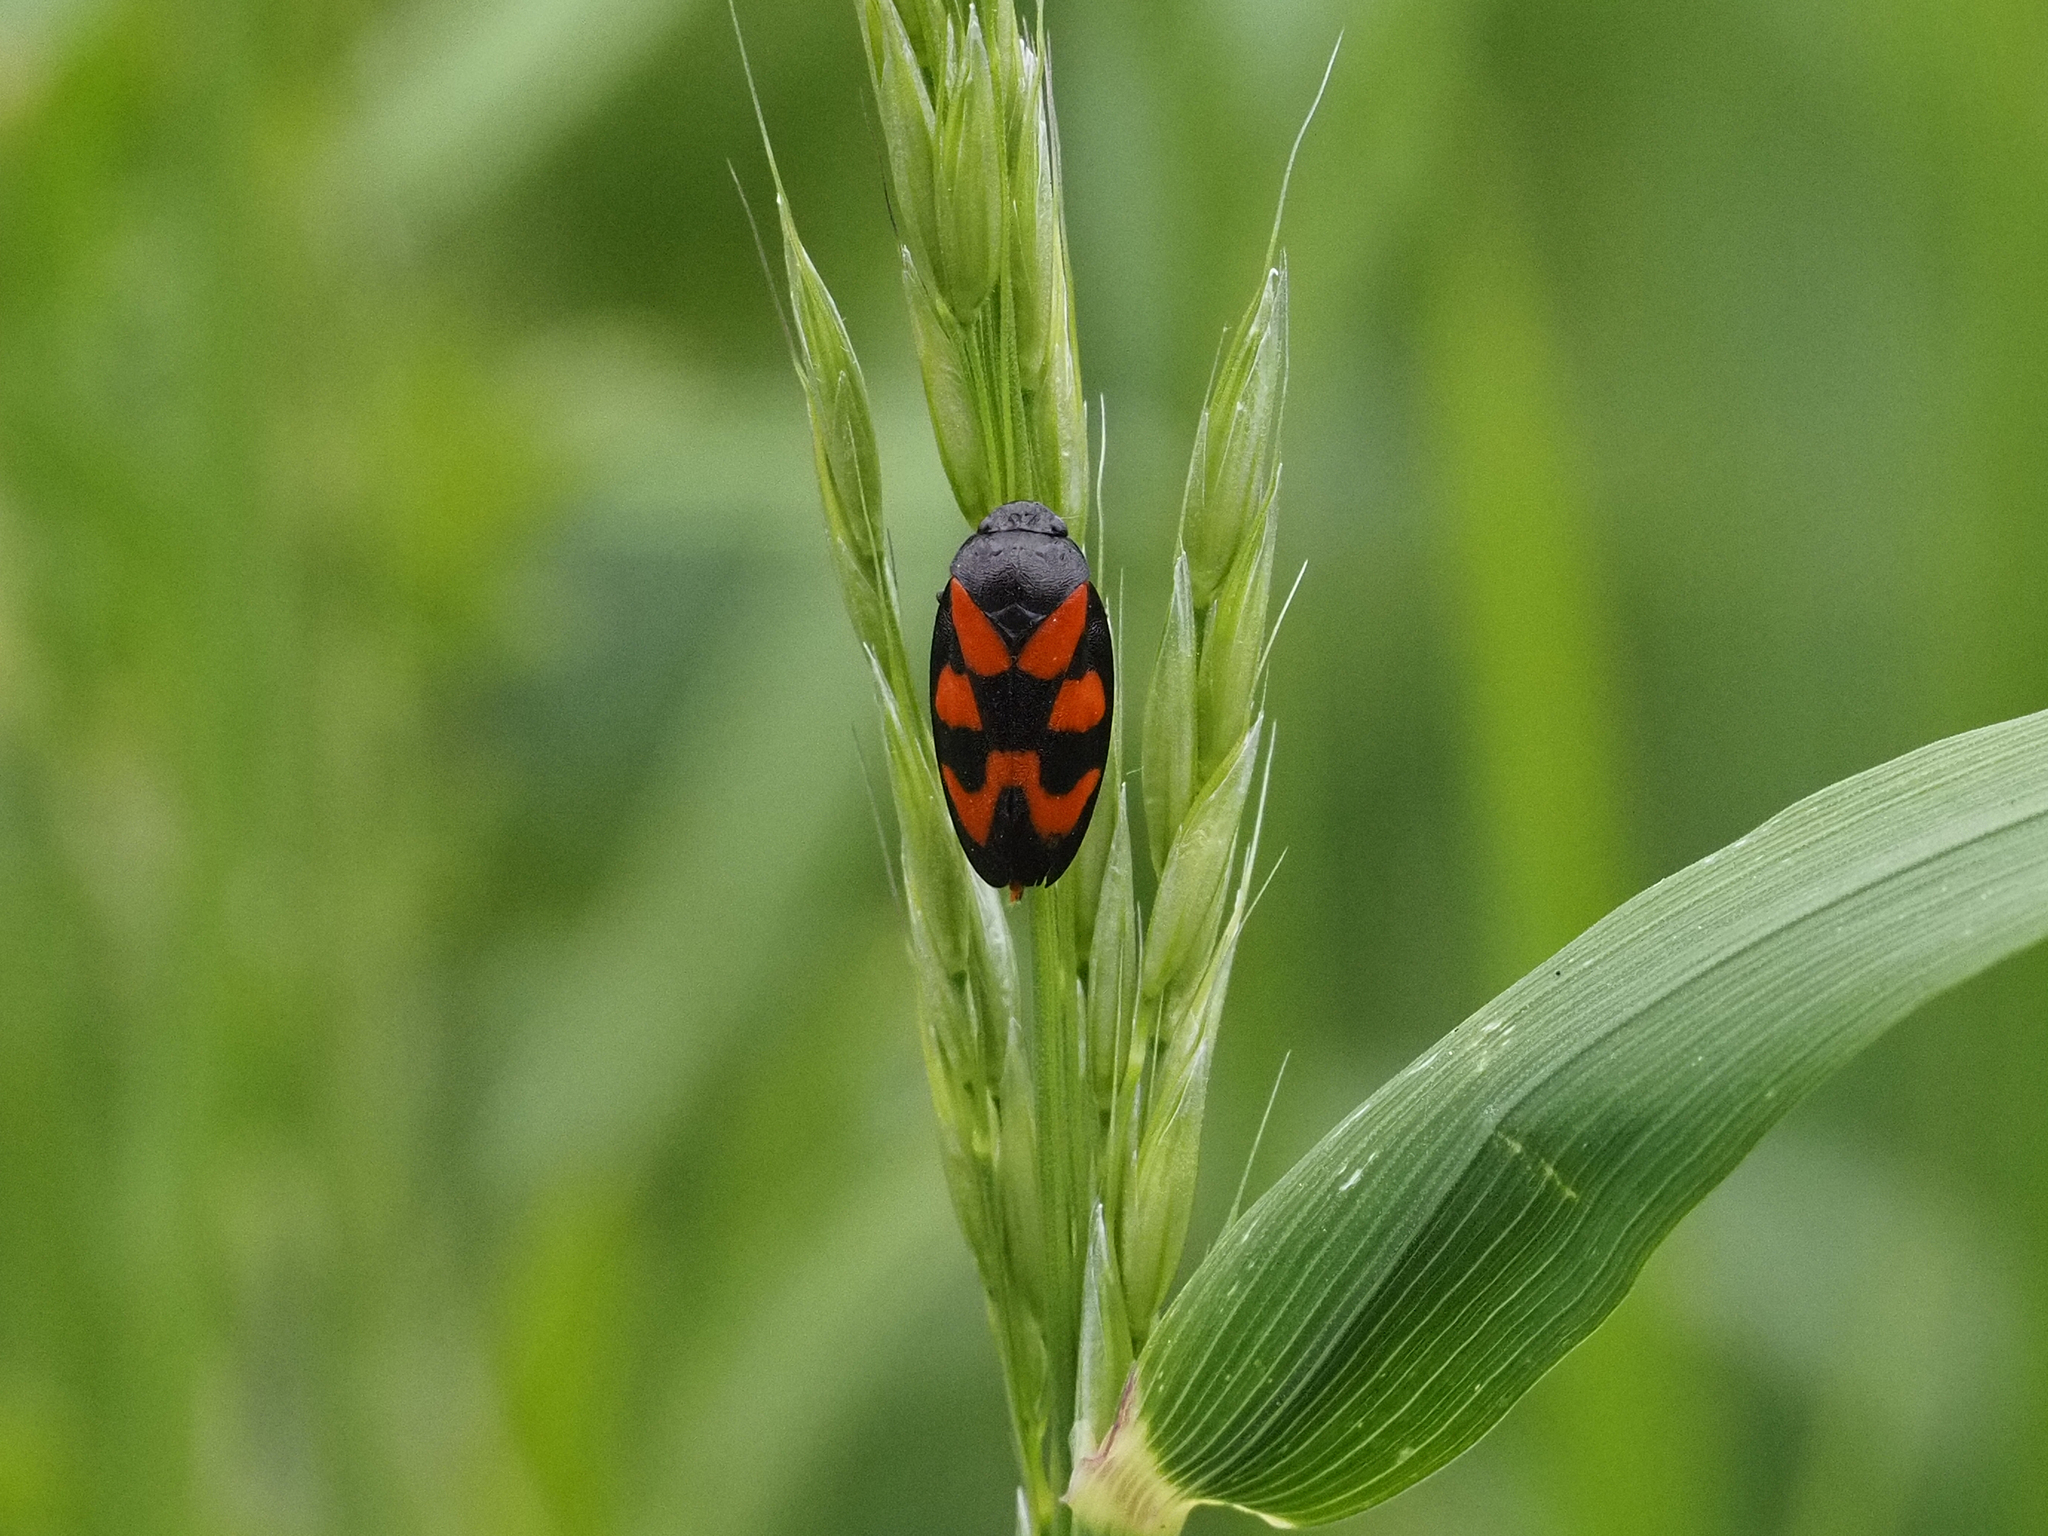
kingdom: Animalia
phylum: Arthropoda
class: Insecta
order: Hemiptera
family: Cercopidae
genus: Cercopis
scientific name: Cercopis vulnerata
